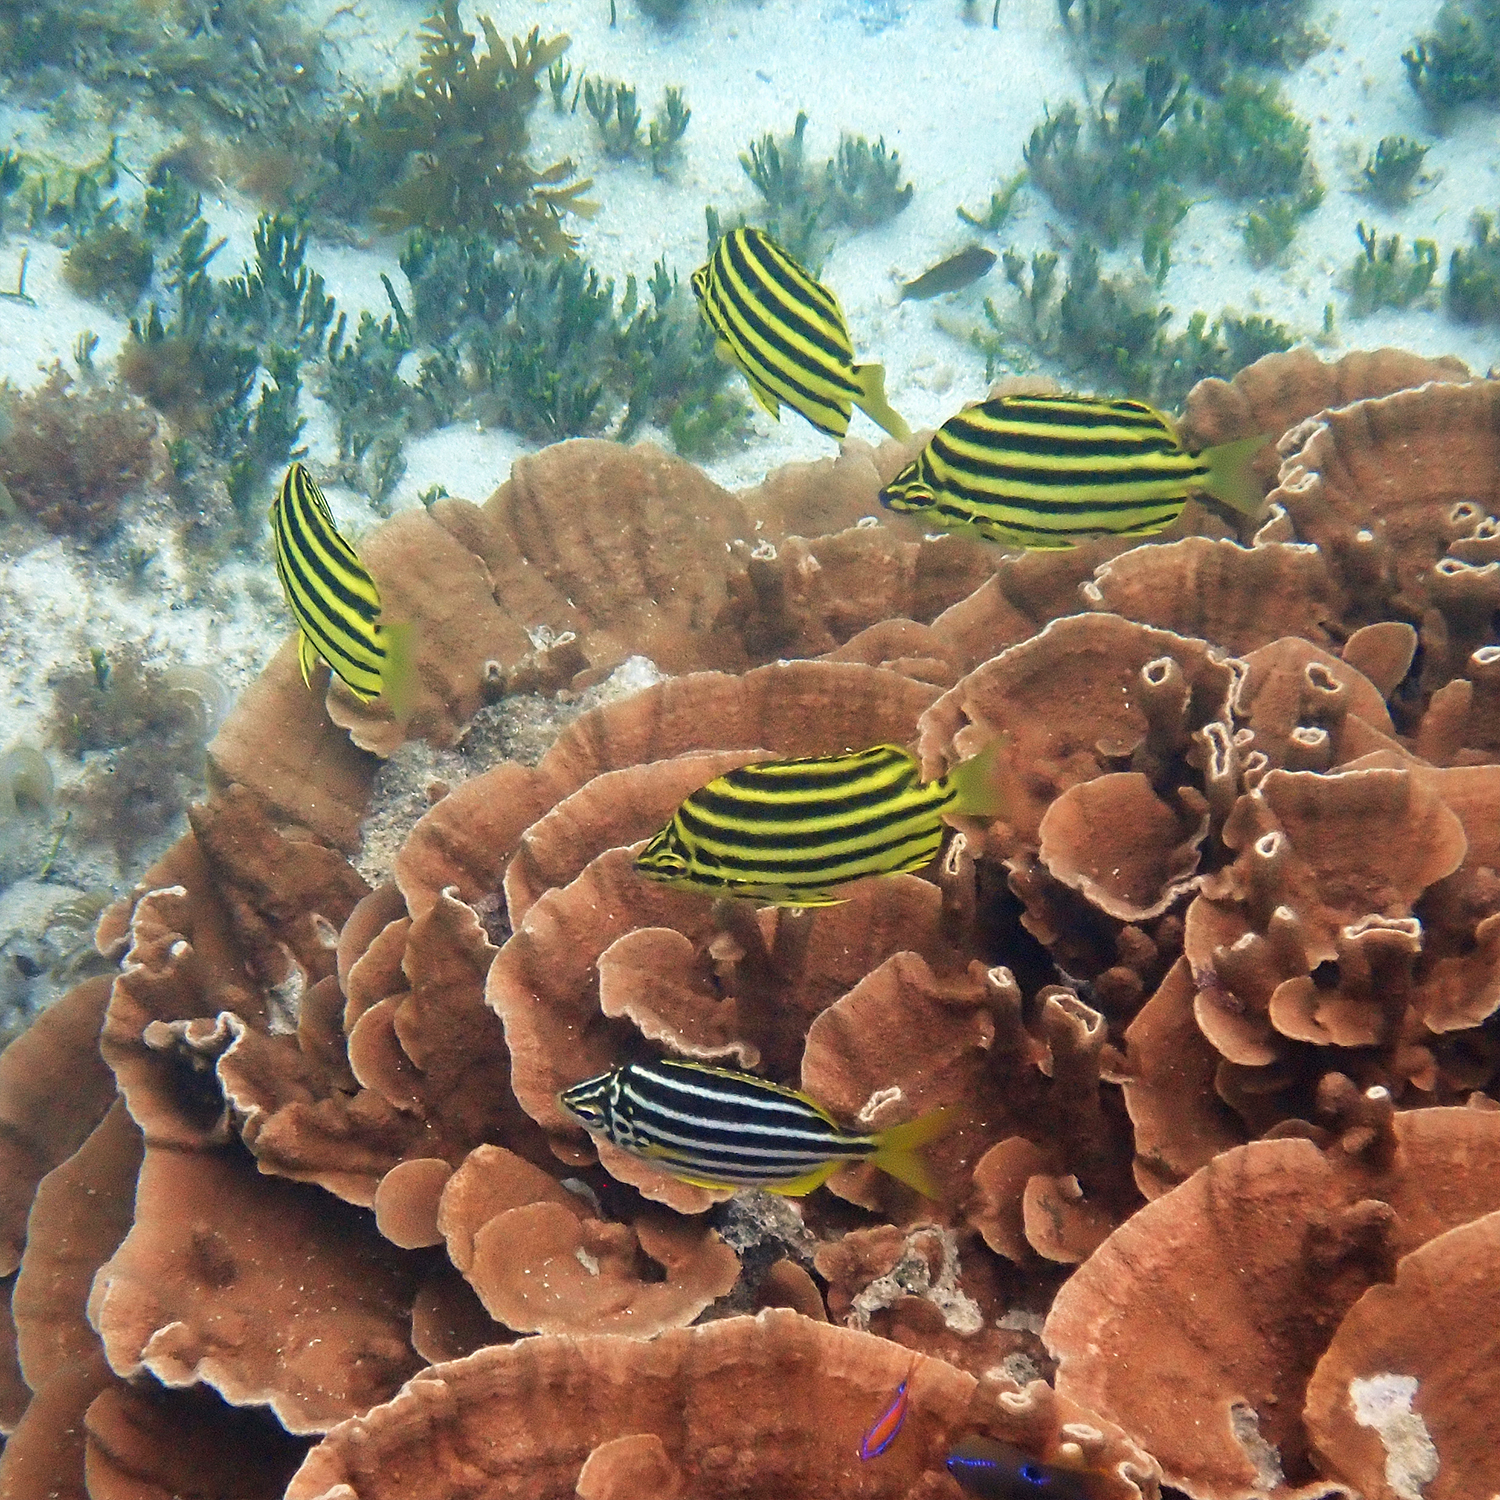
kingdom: Animalia
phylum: Chordata
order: Perciformes
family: Kyphosidae
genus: Microcanthus
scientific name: Microcanthus joyceae
